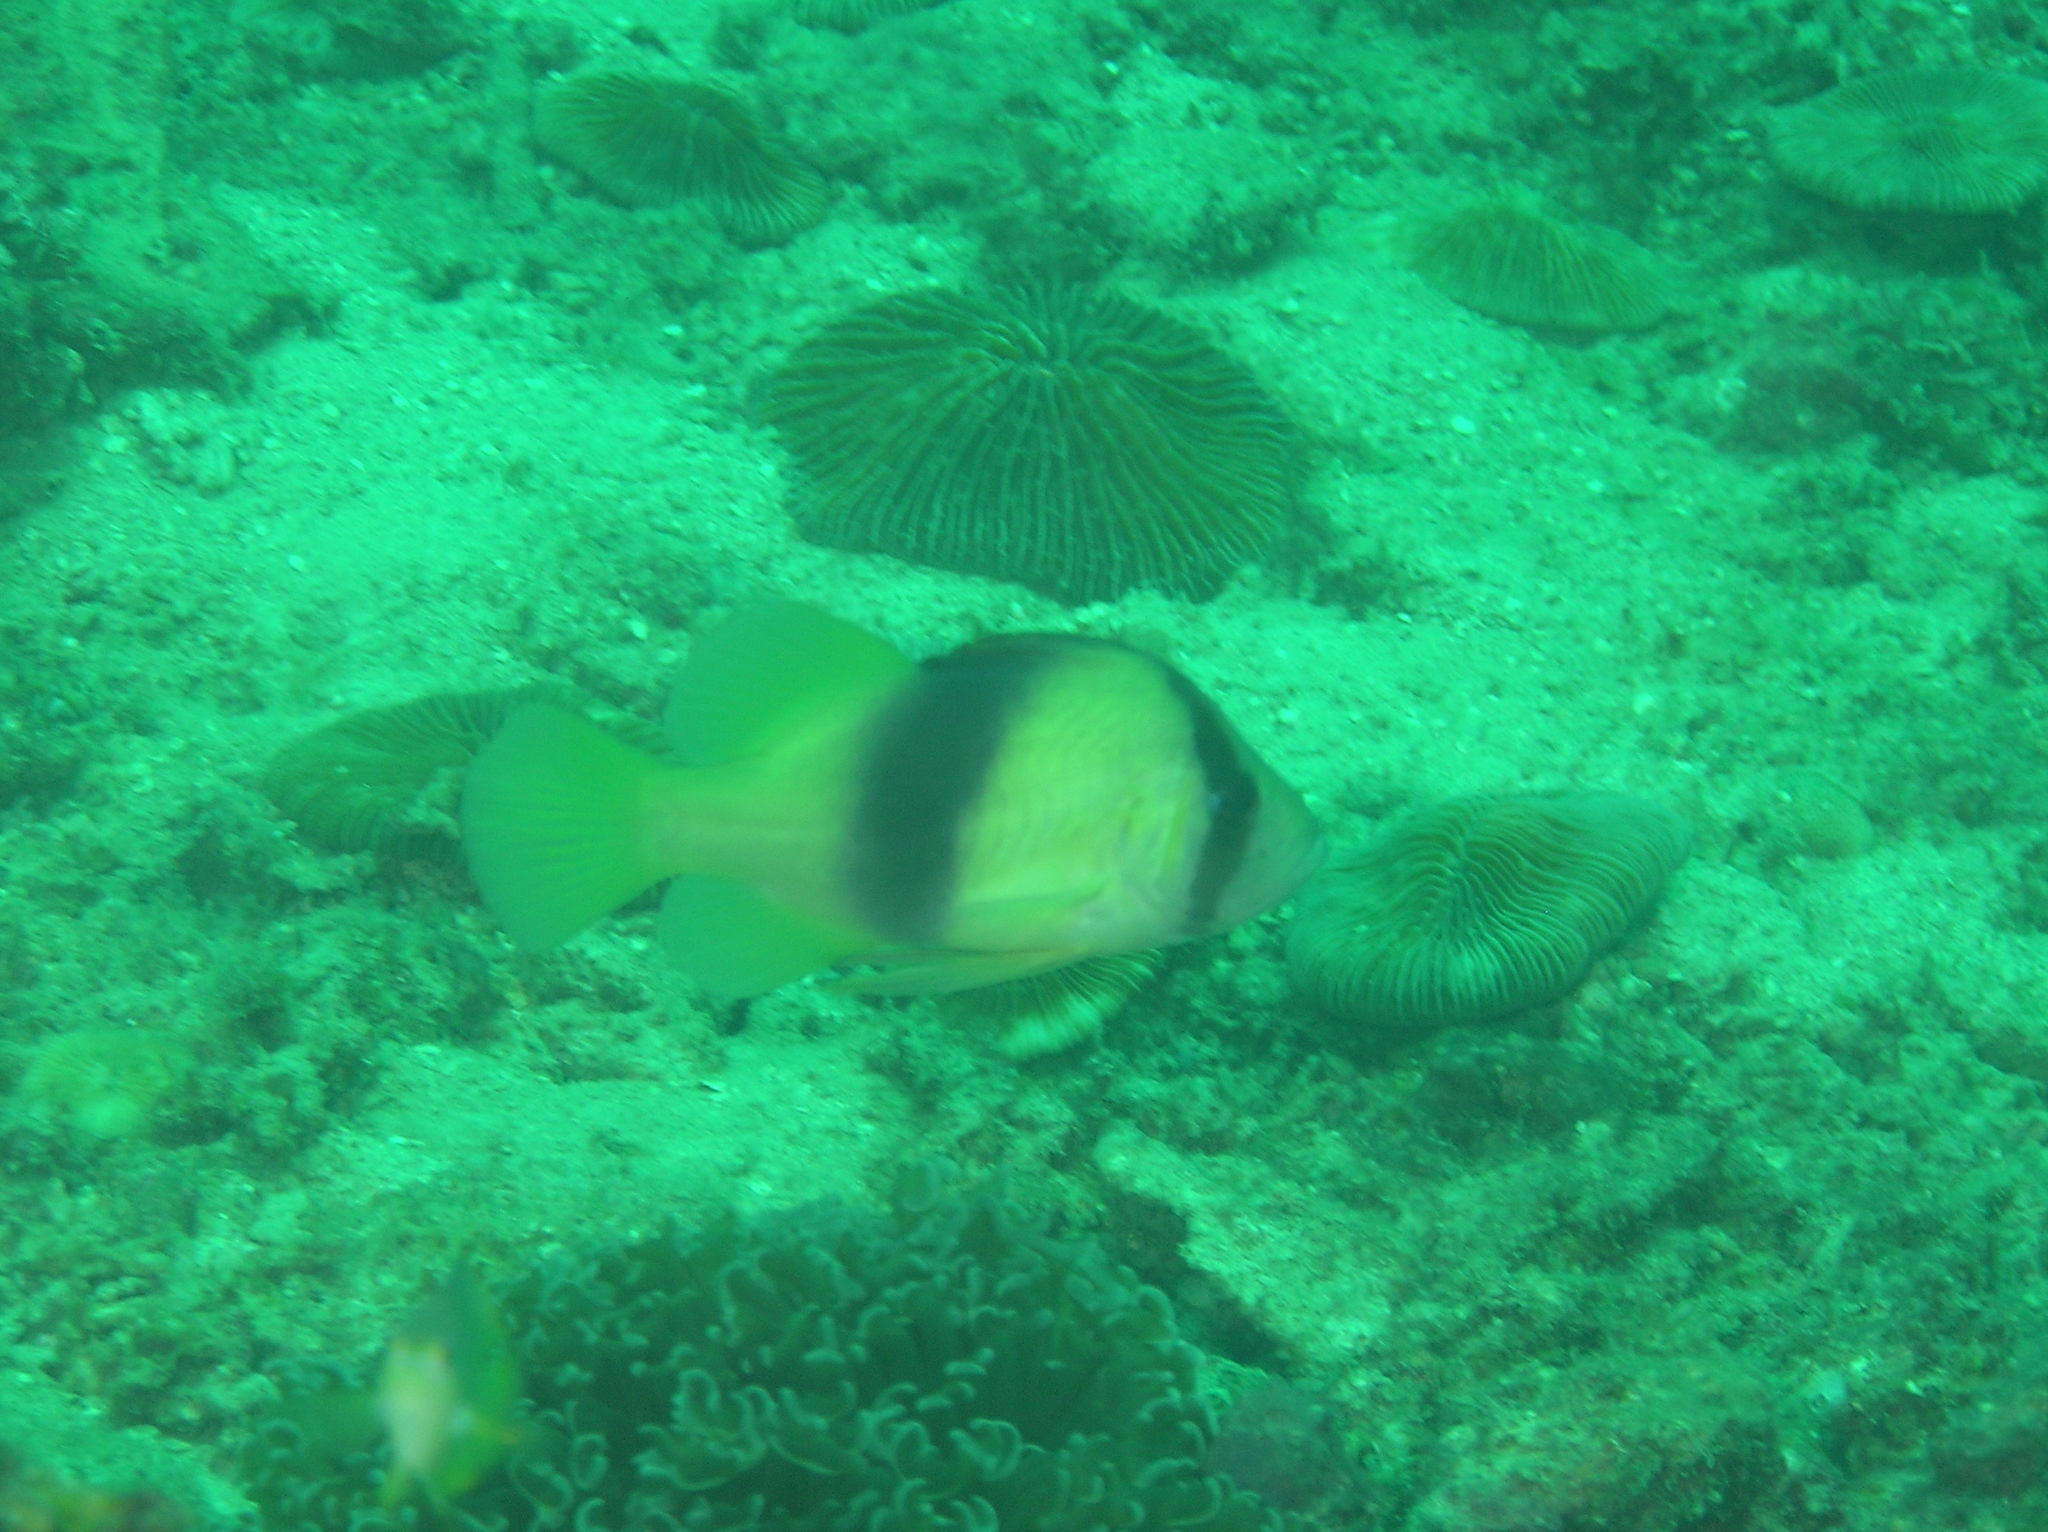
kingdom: Animalia
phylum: Chordata
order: Perciformes
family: Serranidae
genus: Diploprion
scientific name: Diploprion bifasciatum
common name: Barred soapfish
